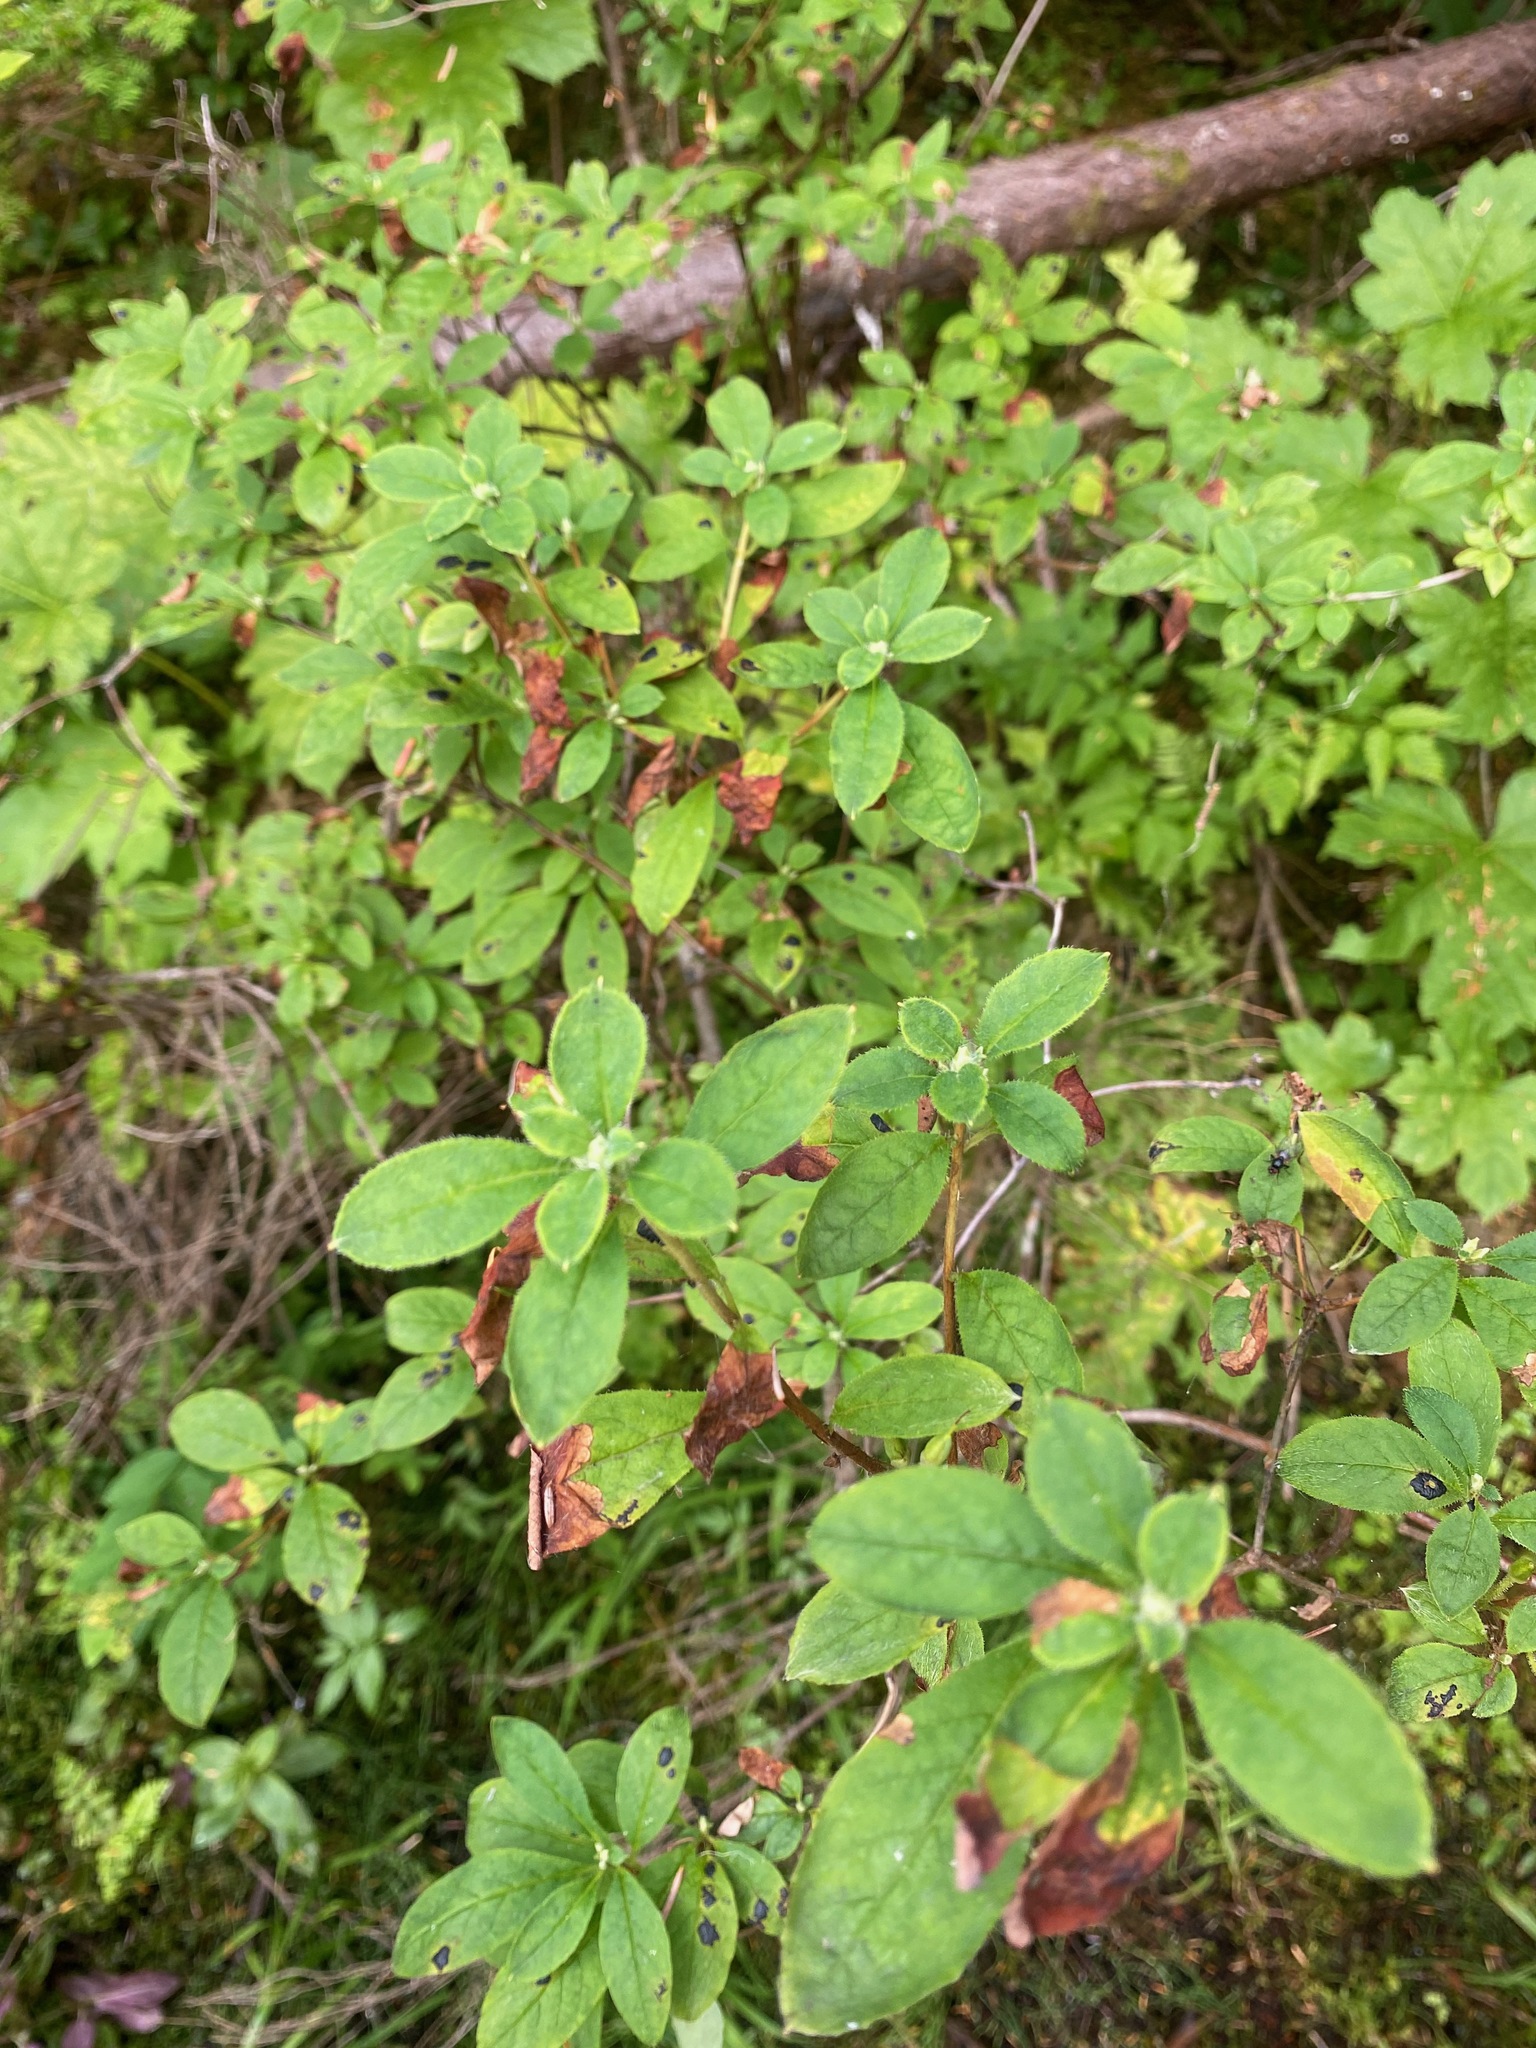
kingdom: Plantae
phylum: Tracheophyta
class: Magnoliopsida
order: Ericales
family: Ericaceae
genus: Rhododendron
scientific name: Rhododendron menziesii
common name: Pacific menziesia
